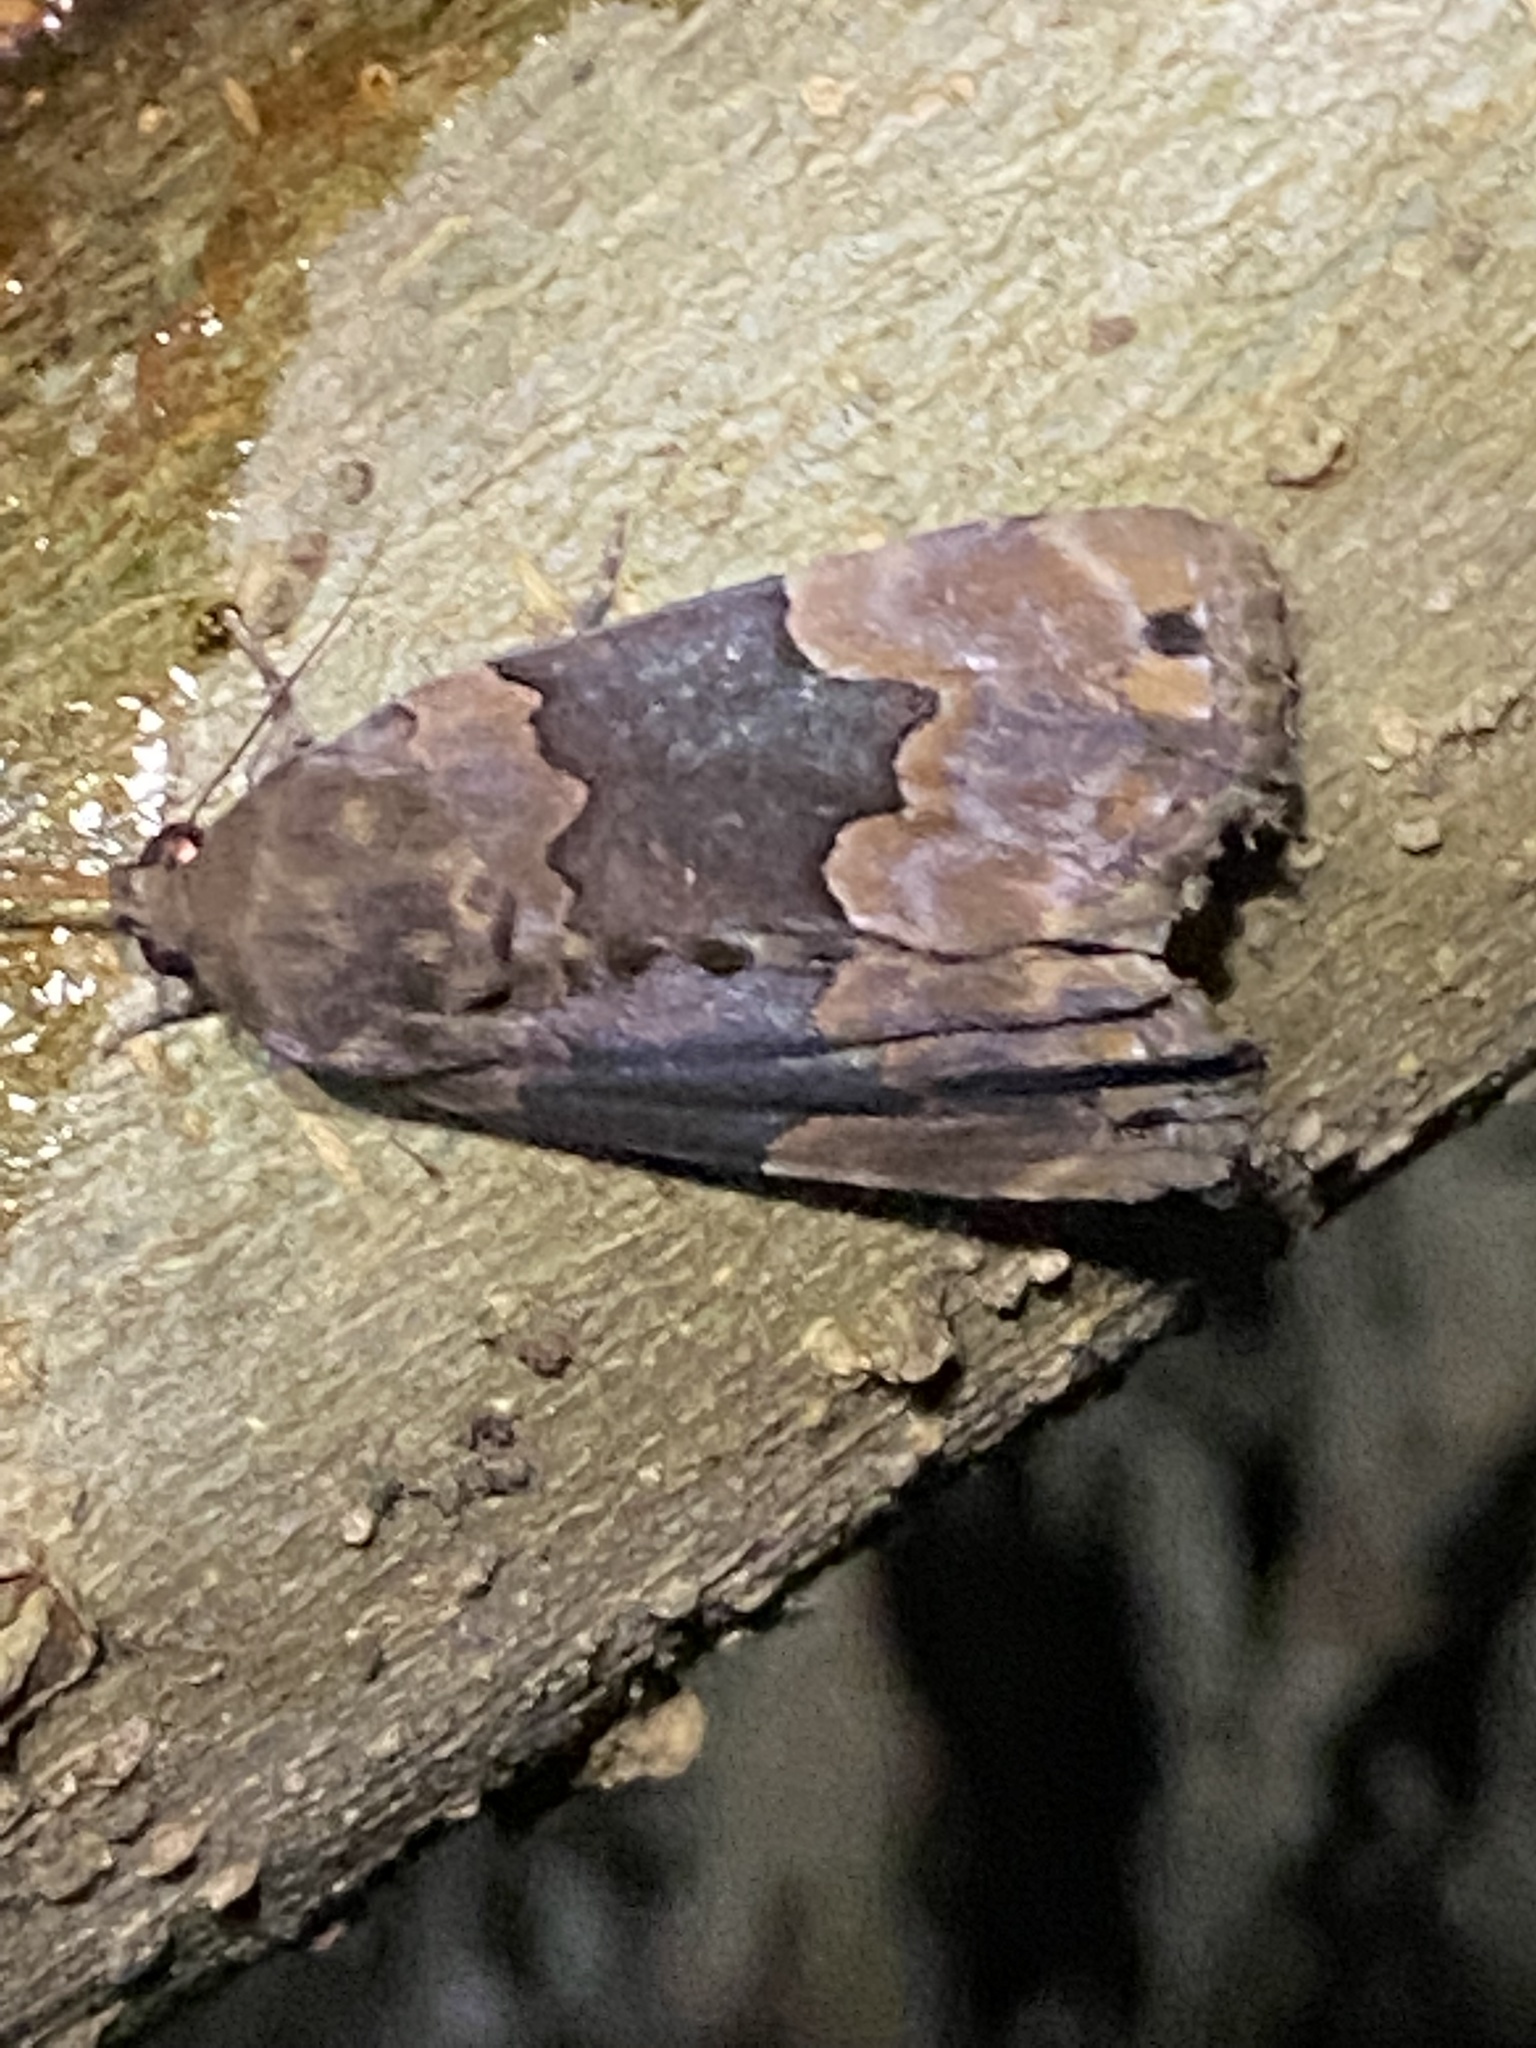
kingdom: Animalia
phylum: Arthropoda
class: Insecta
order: Lepidoptera
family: Erebidae
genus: Dinumma
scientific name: Dinumma deponens
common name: Purplish moth
